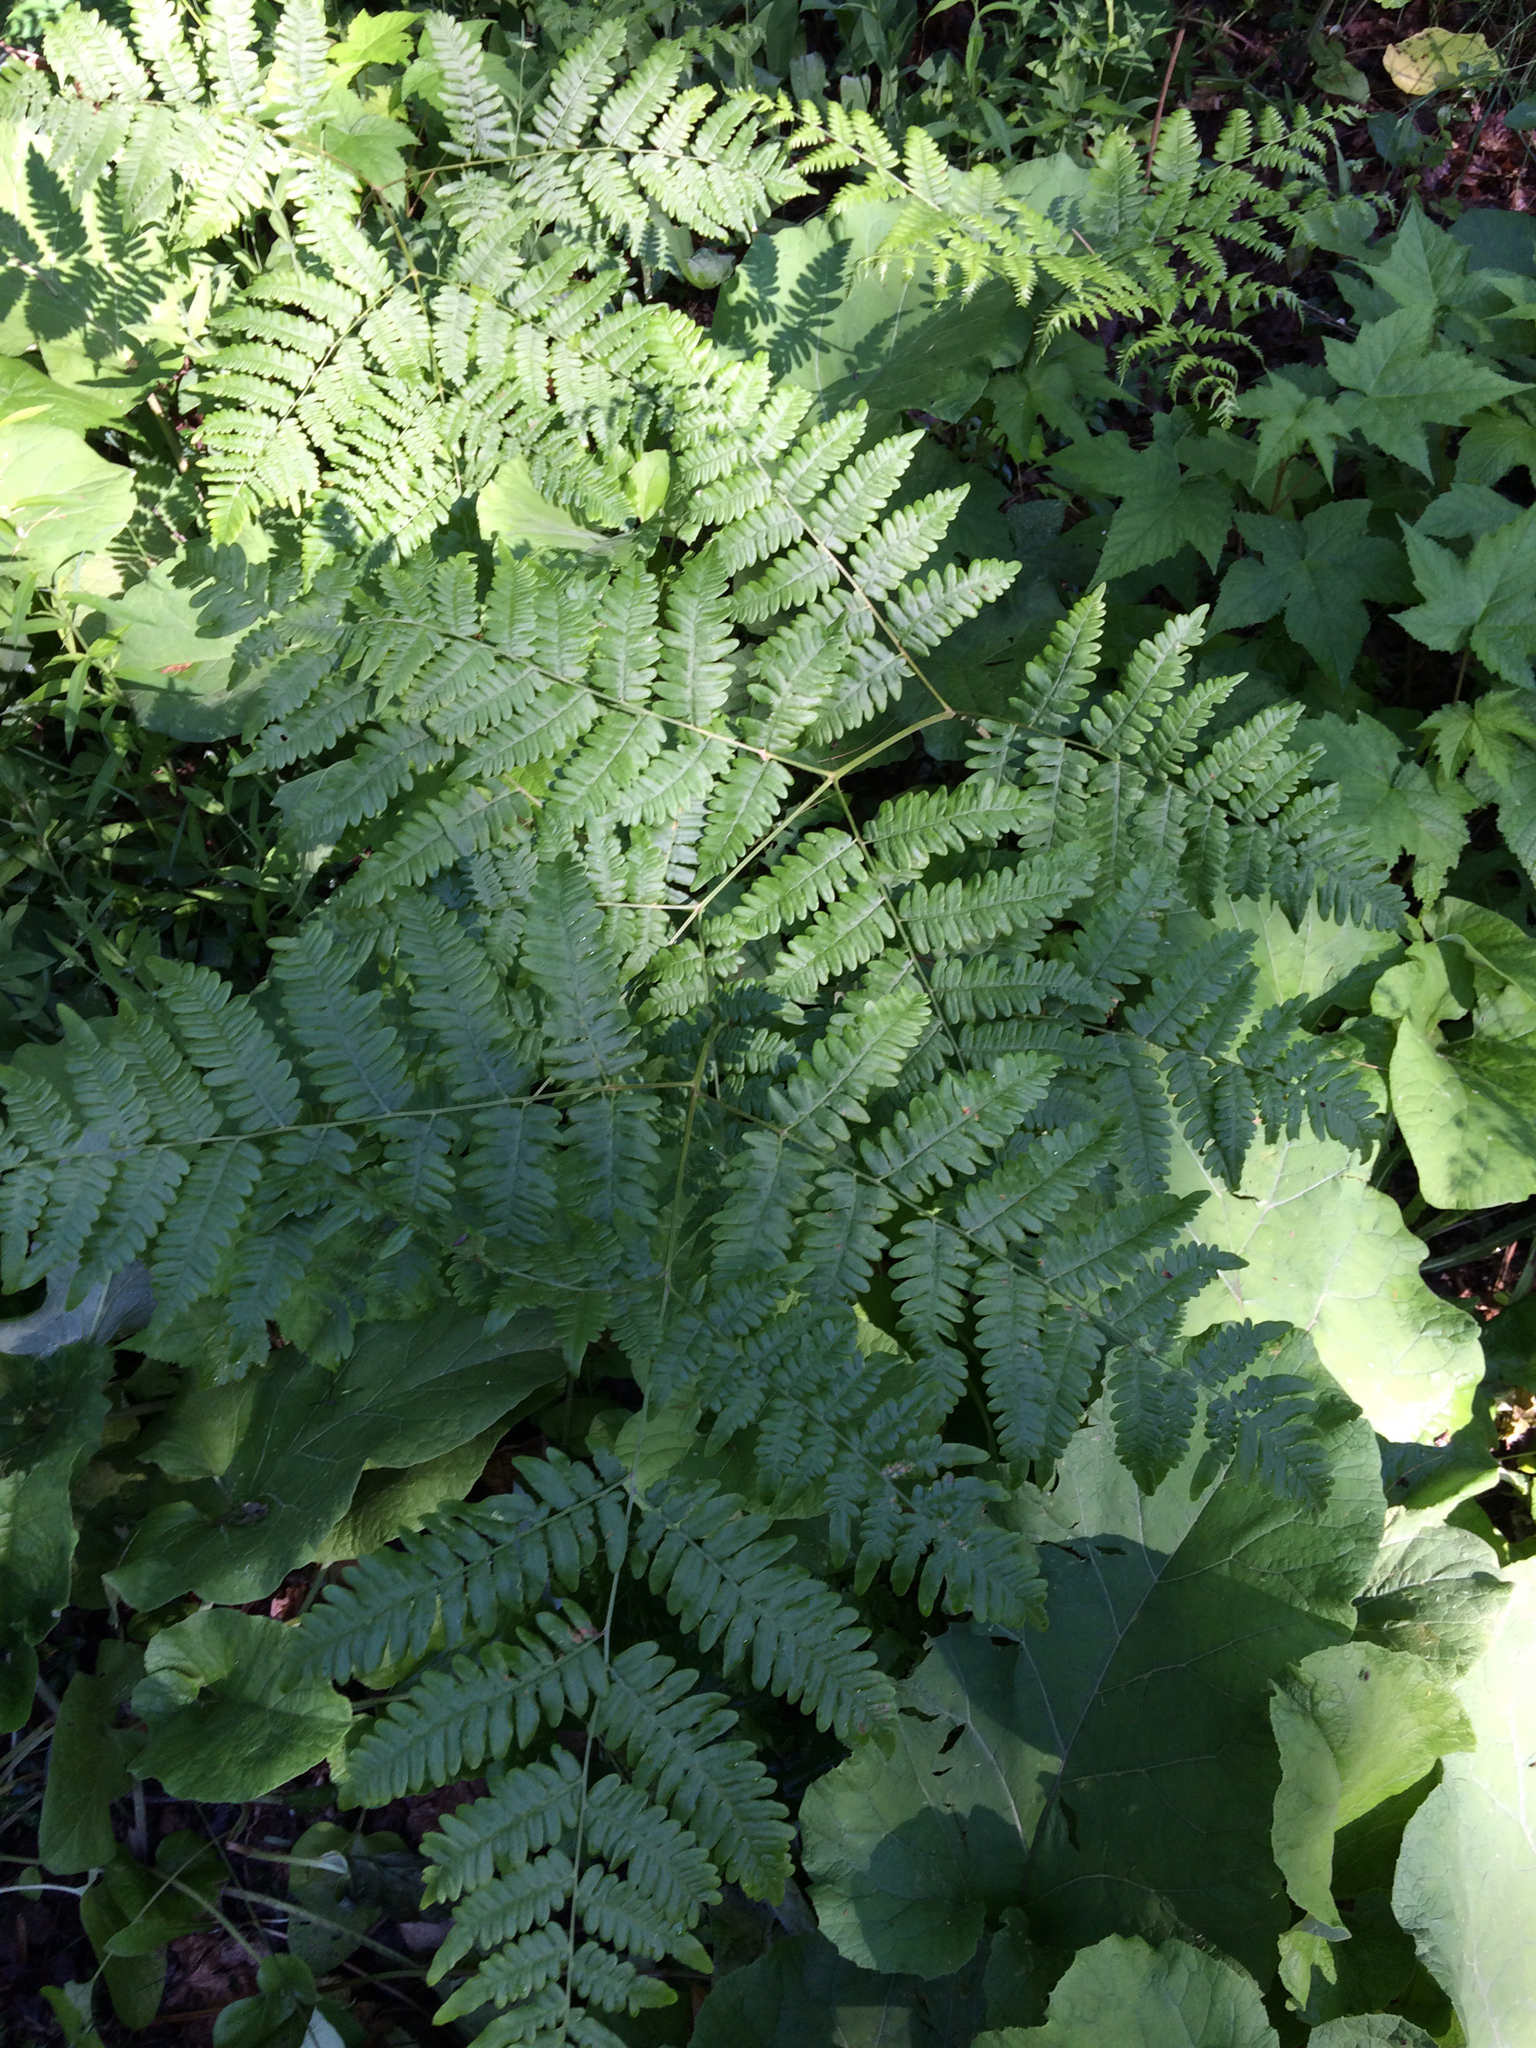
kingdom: Plantae
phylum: Tracheophyta
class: Polypodiopsida
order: Polypodiales
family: Dennstaedtiaceae
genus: Pteridium
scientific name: Pteridium aquilinum
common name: Bracken
